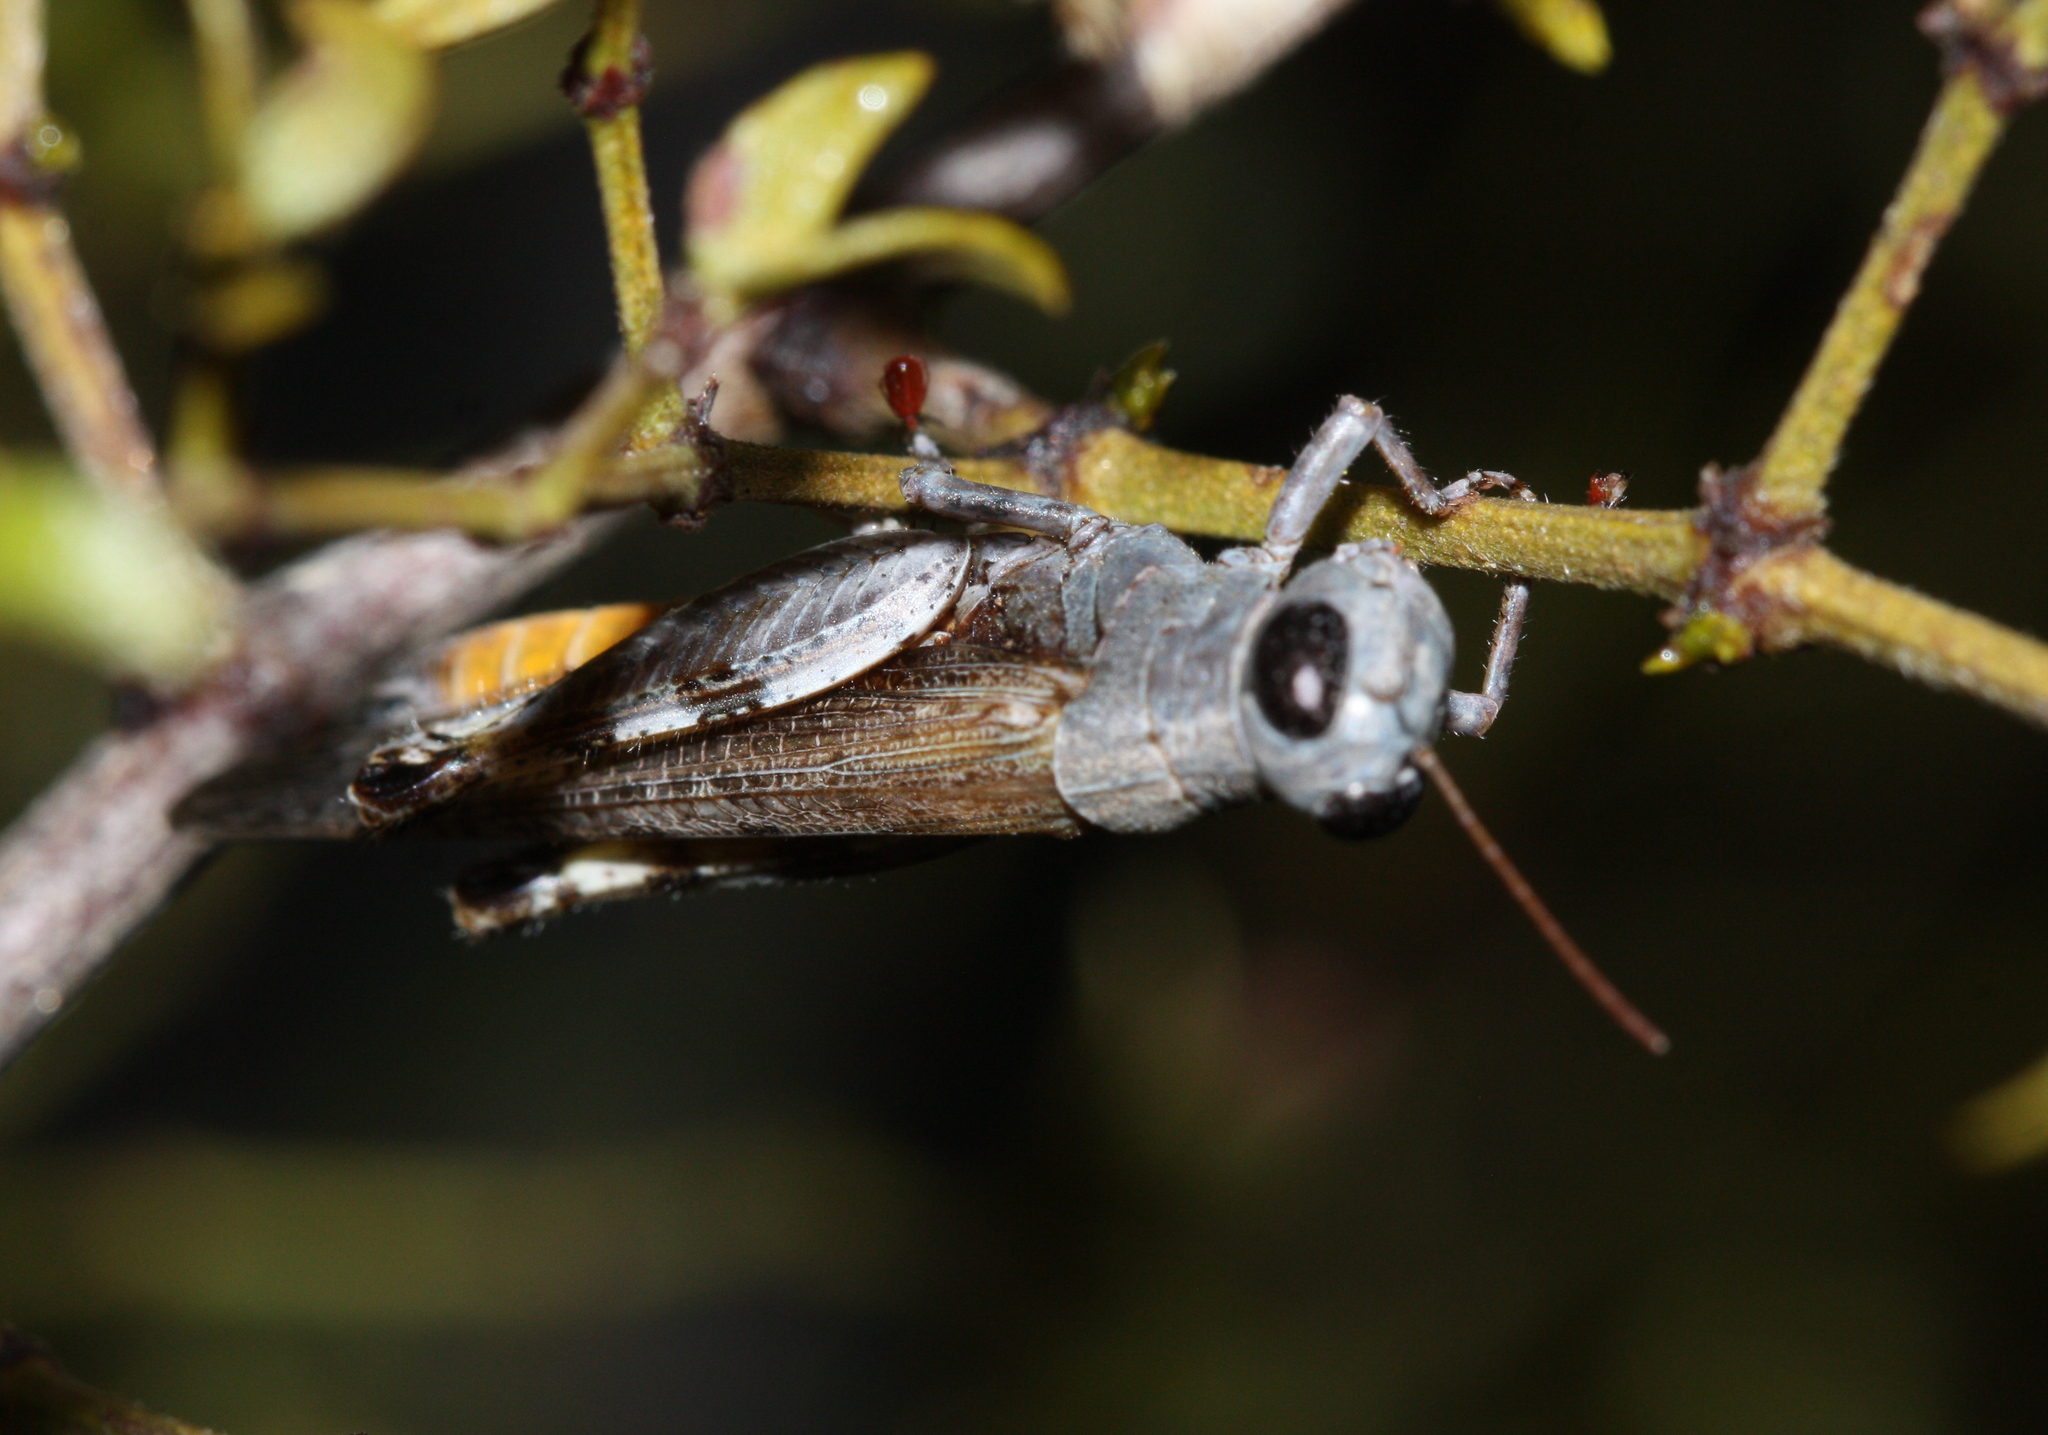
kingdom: Animalia
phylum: Arthropoda
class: Insecta
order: Orthoptera
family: Acrididae
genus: Ligurotettix
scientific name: Ligurotettix coquilletti
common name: Desert clicker grasshopper
